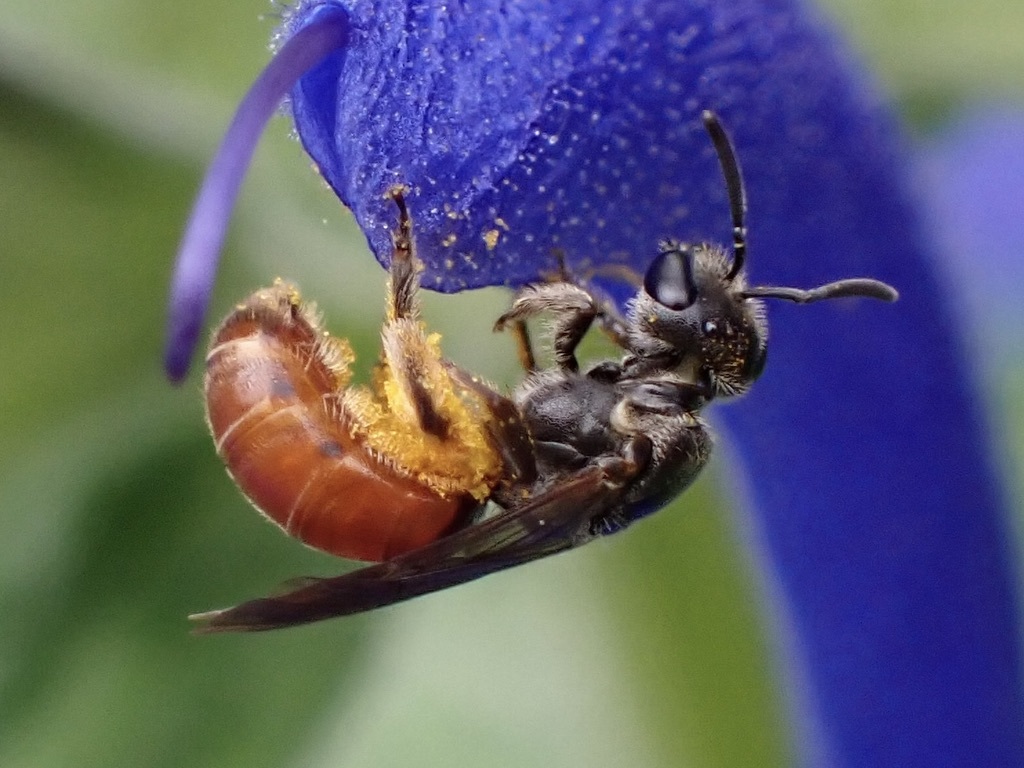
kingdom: Animalia
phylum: Arthropoda
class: Insecta
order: Hymenoptera
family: Halictidae
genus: Lasioglossum
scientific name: Lasioglossum ovaliceps
